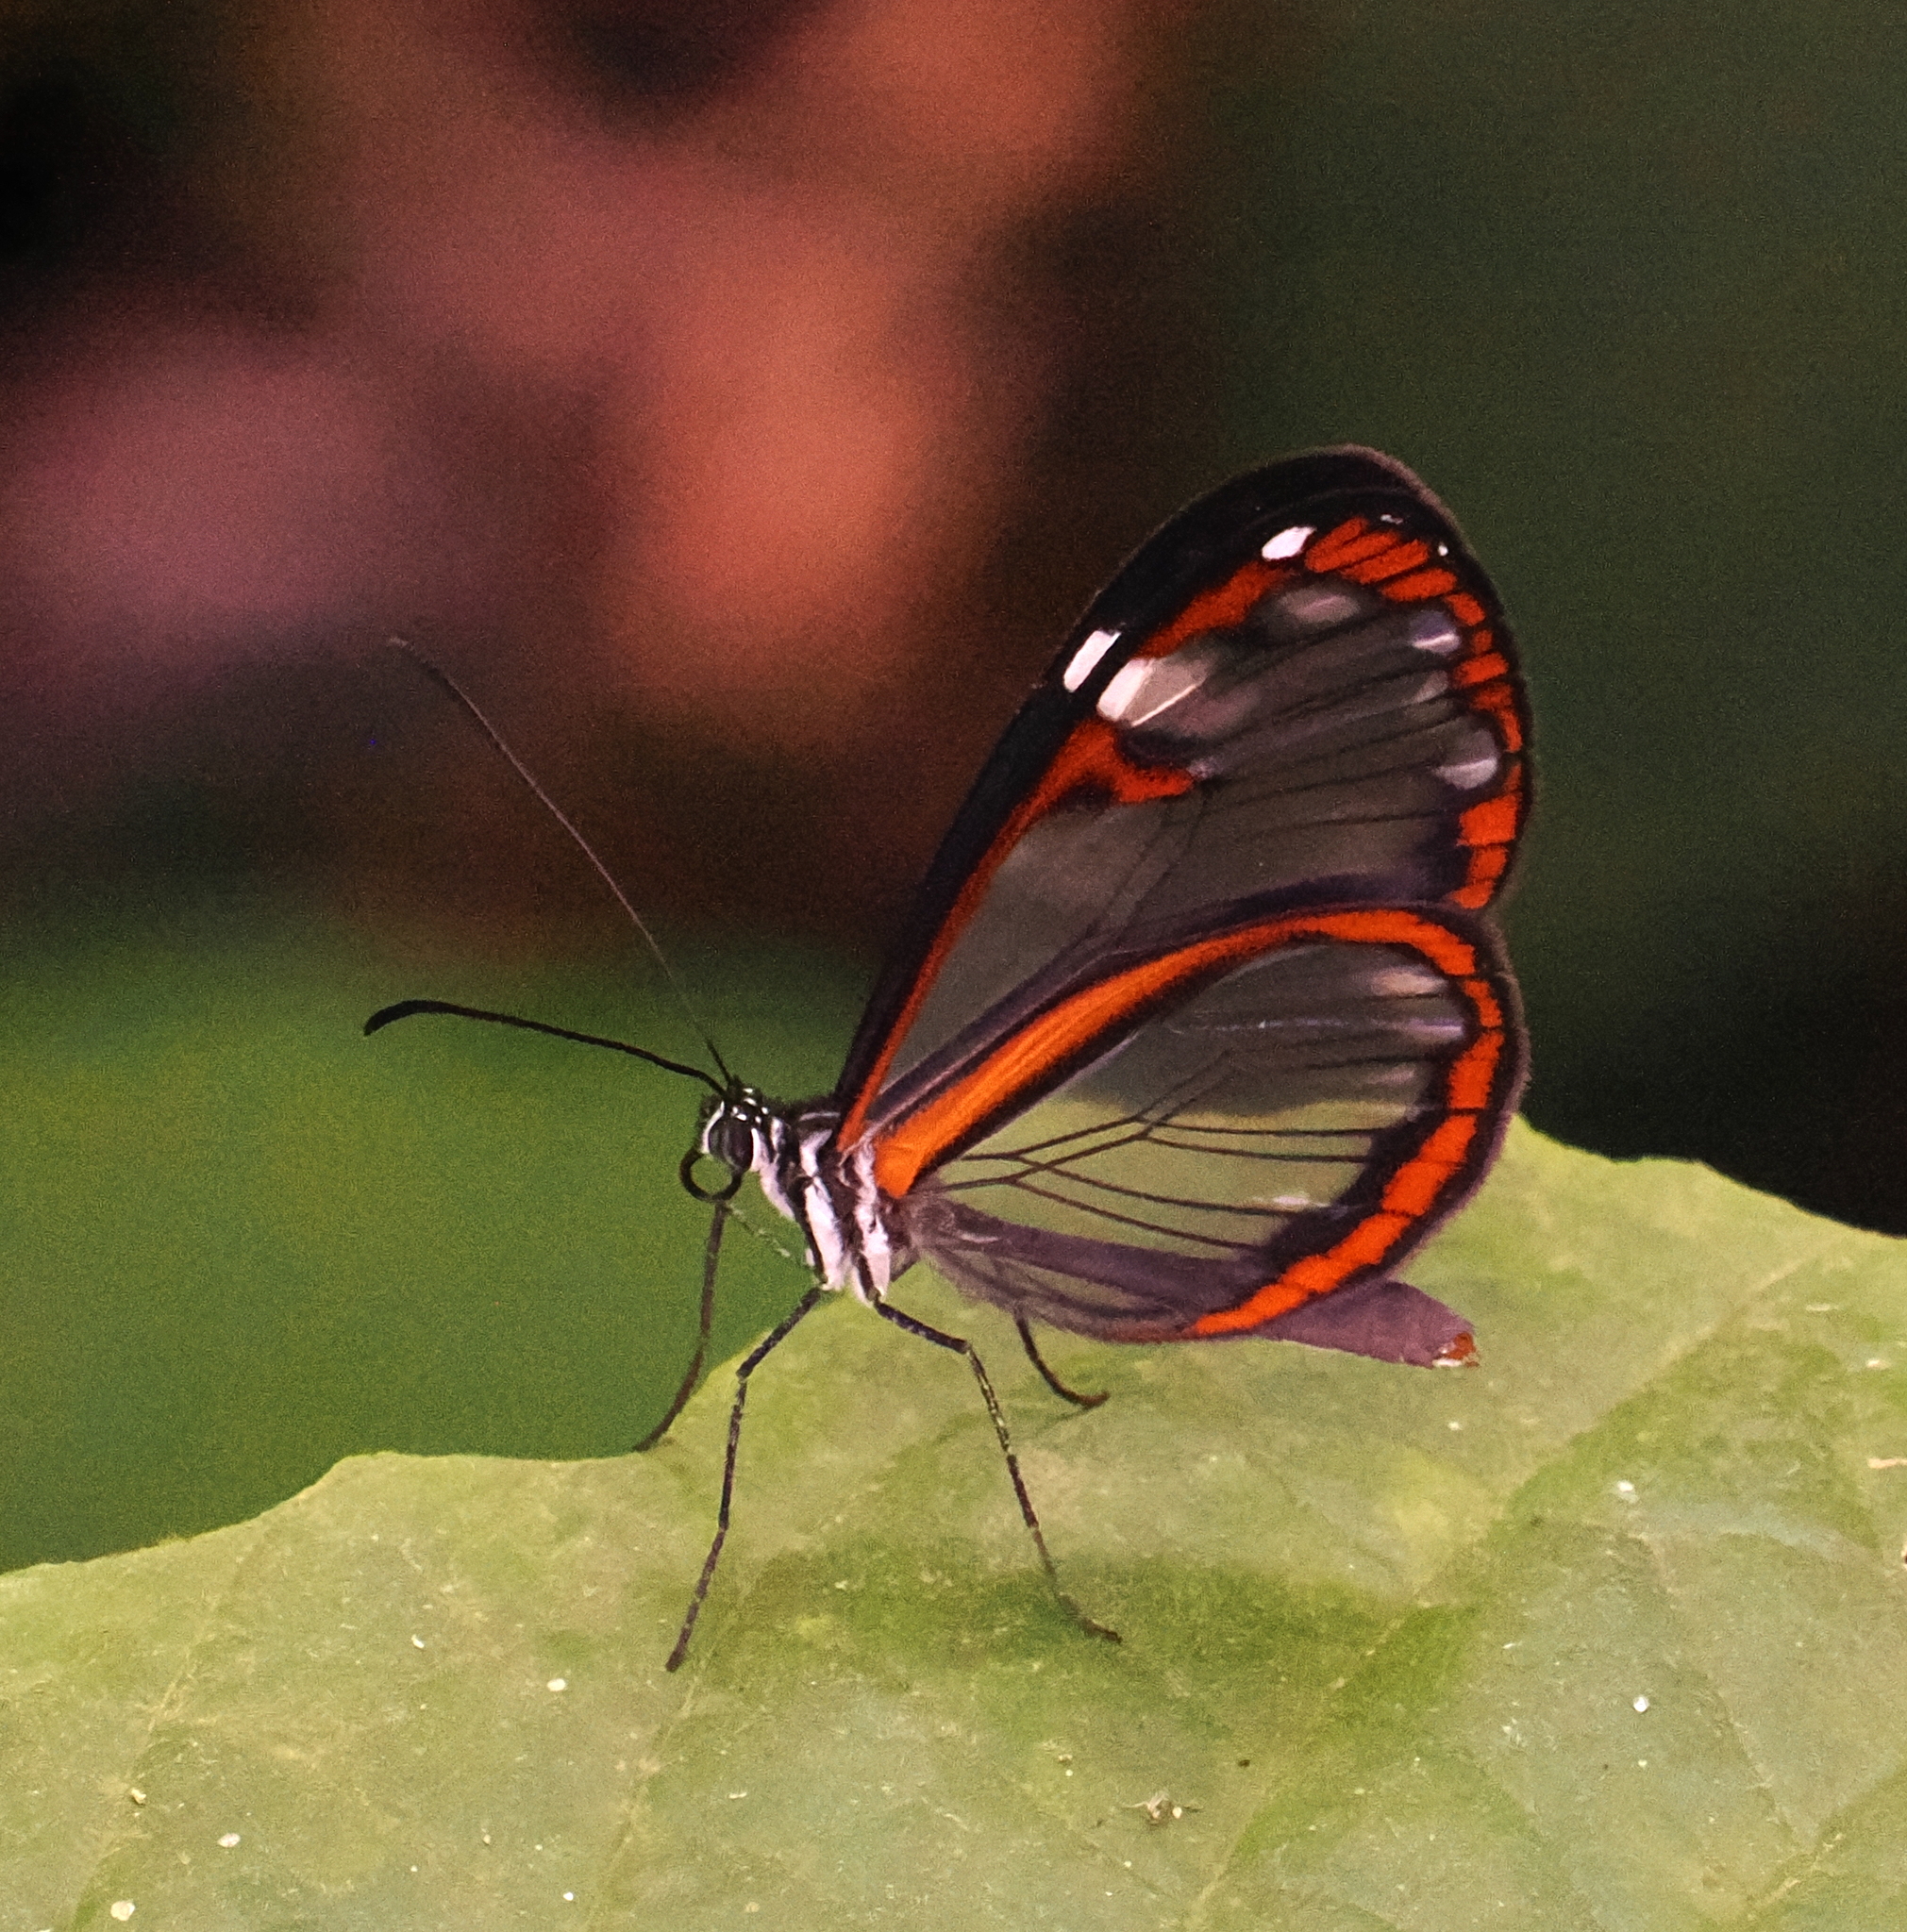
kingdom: Animalia
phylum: Arthropoda
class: Insecta
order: Lepidoptera
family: Nymphalidae
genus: Oleria
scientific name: Oleria fumata
